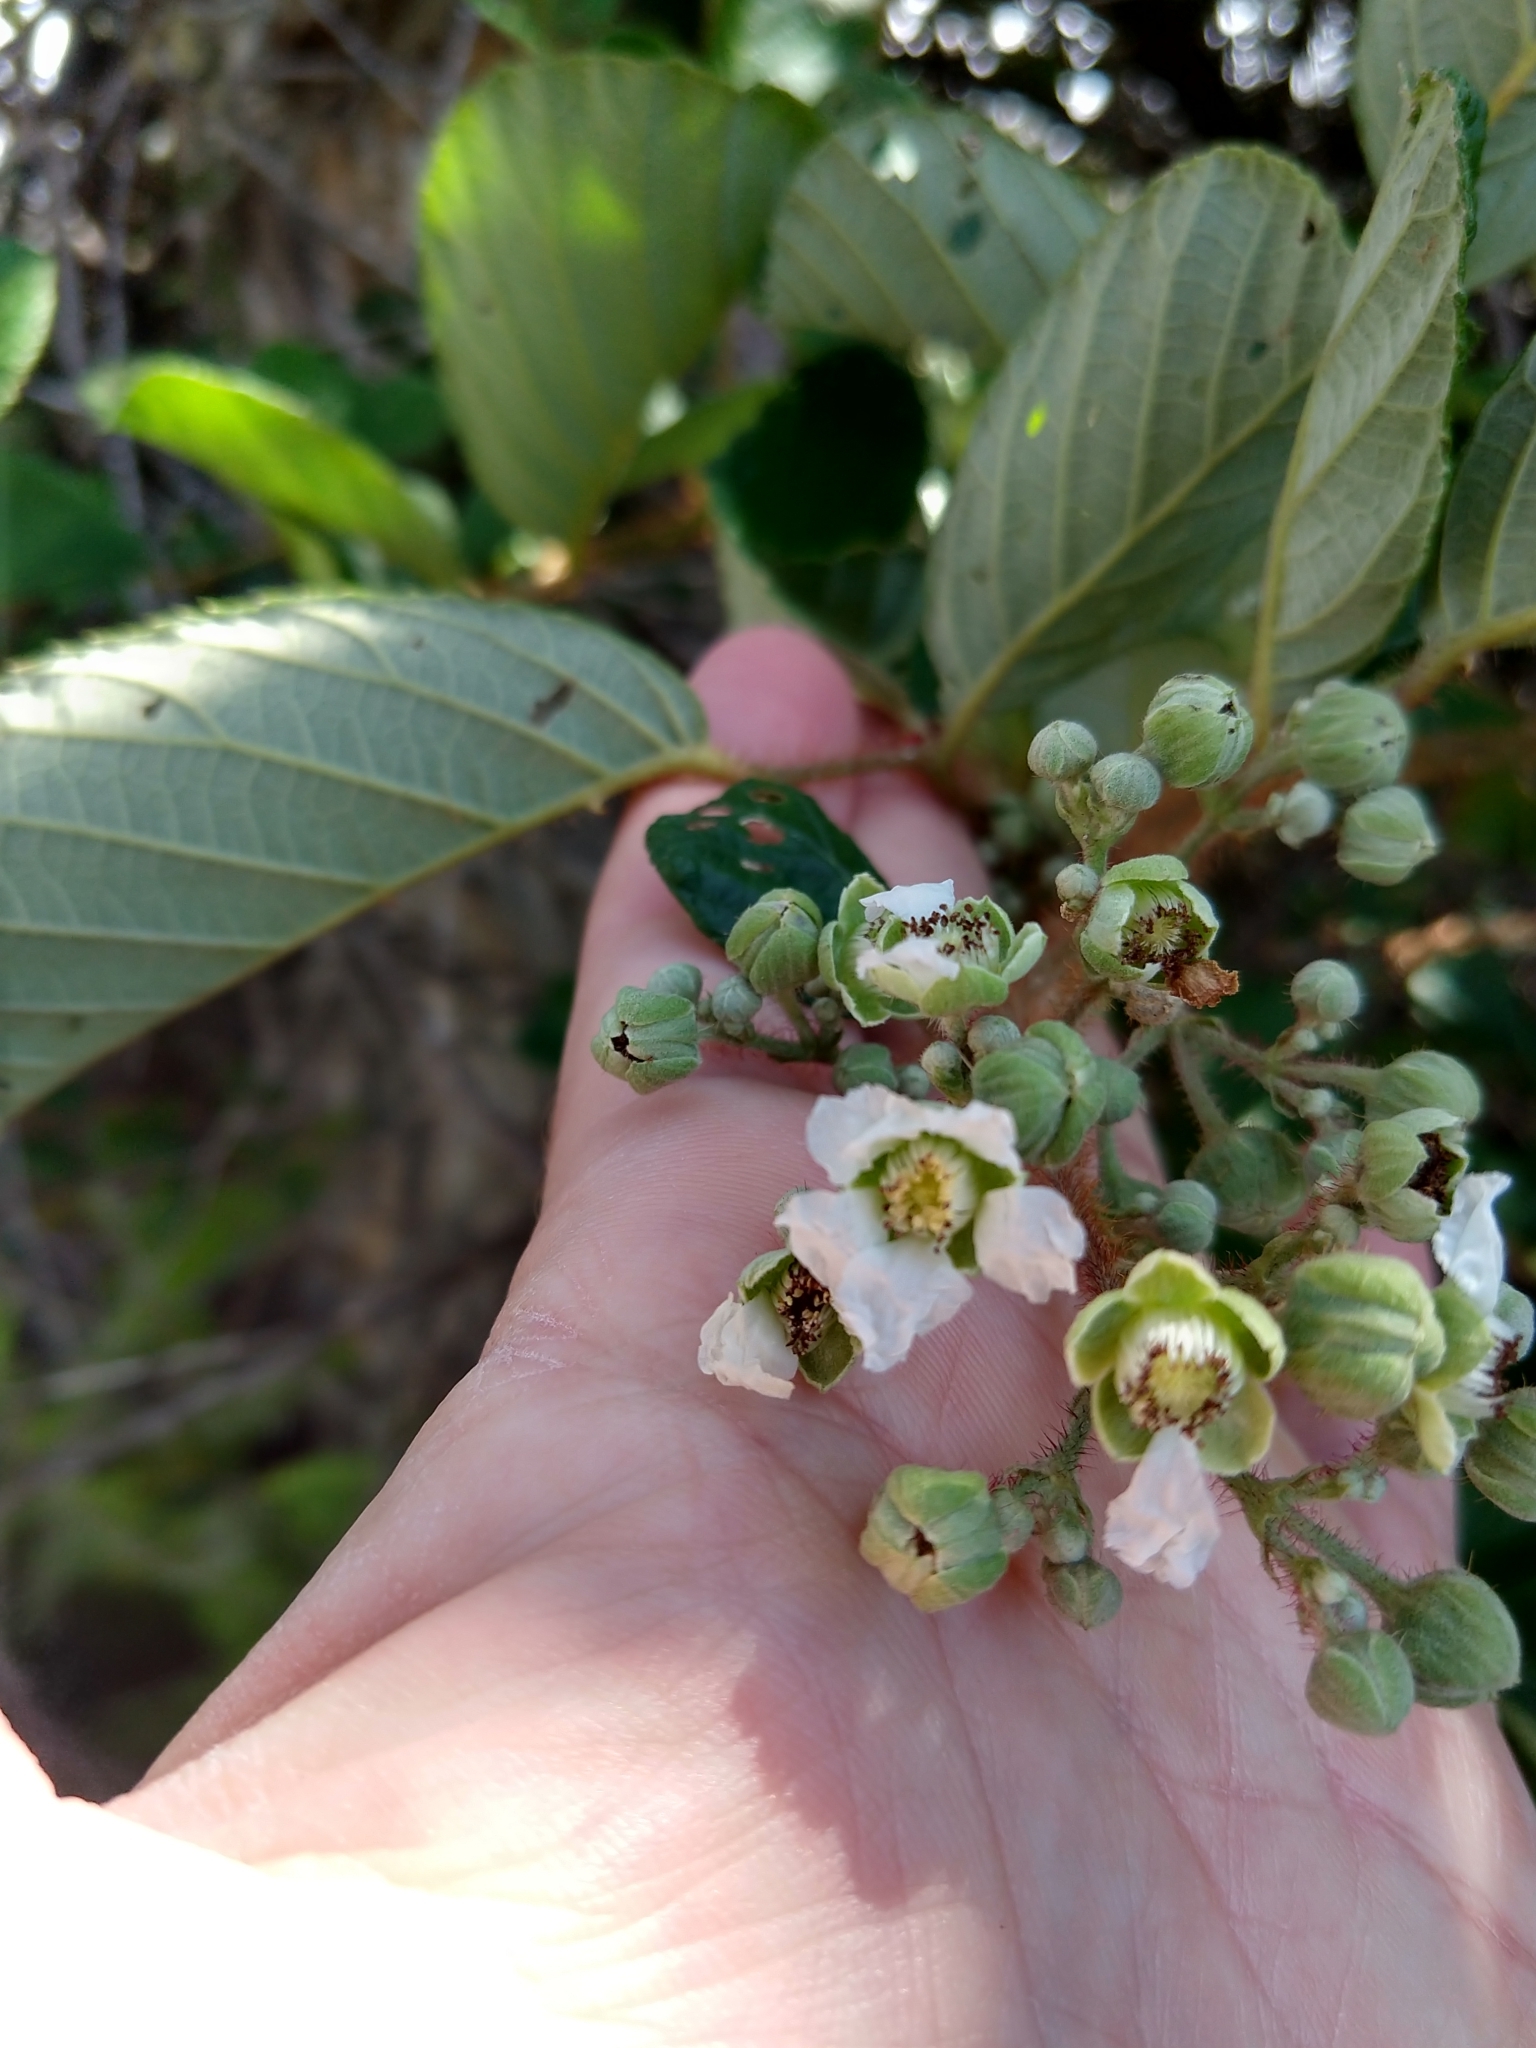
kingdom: Plantae
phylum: Tracheophyta
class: Magnoliopsida
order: Rosales
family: Rosaceae
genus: Rubus
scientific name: Rubus ellipticus
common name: Cheeseberry
